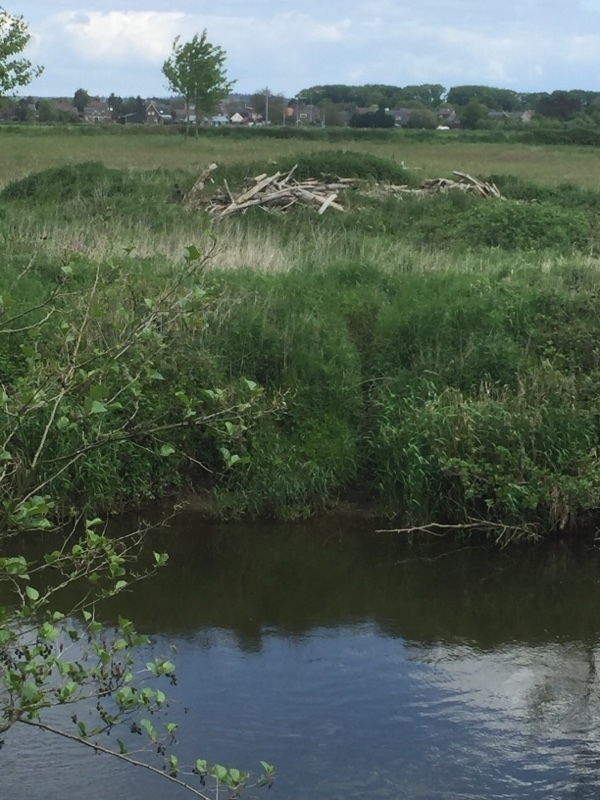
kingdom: Animalia
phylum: Chordata
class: Mammalia
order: Rodentia
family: Castoridae
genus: Castor
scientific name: Castor fiber
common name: Eurasian beaver
